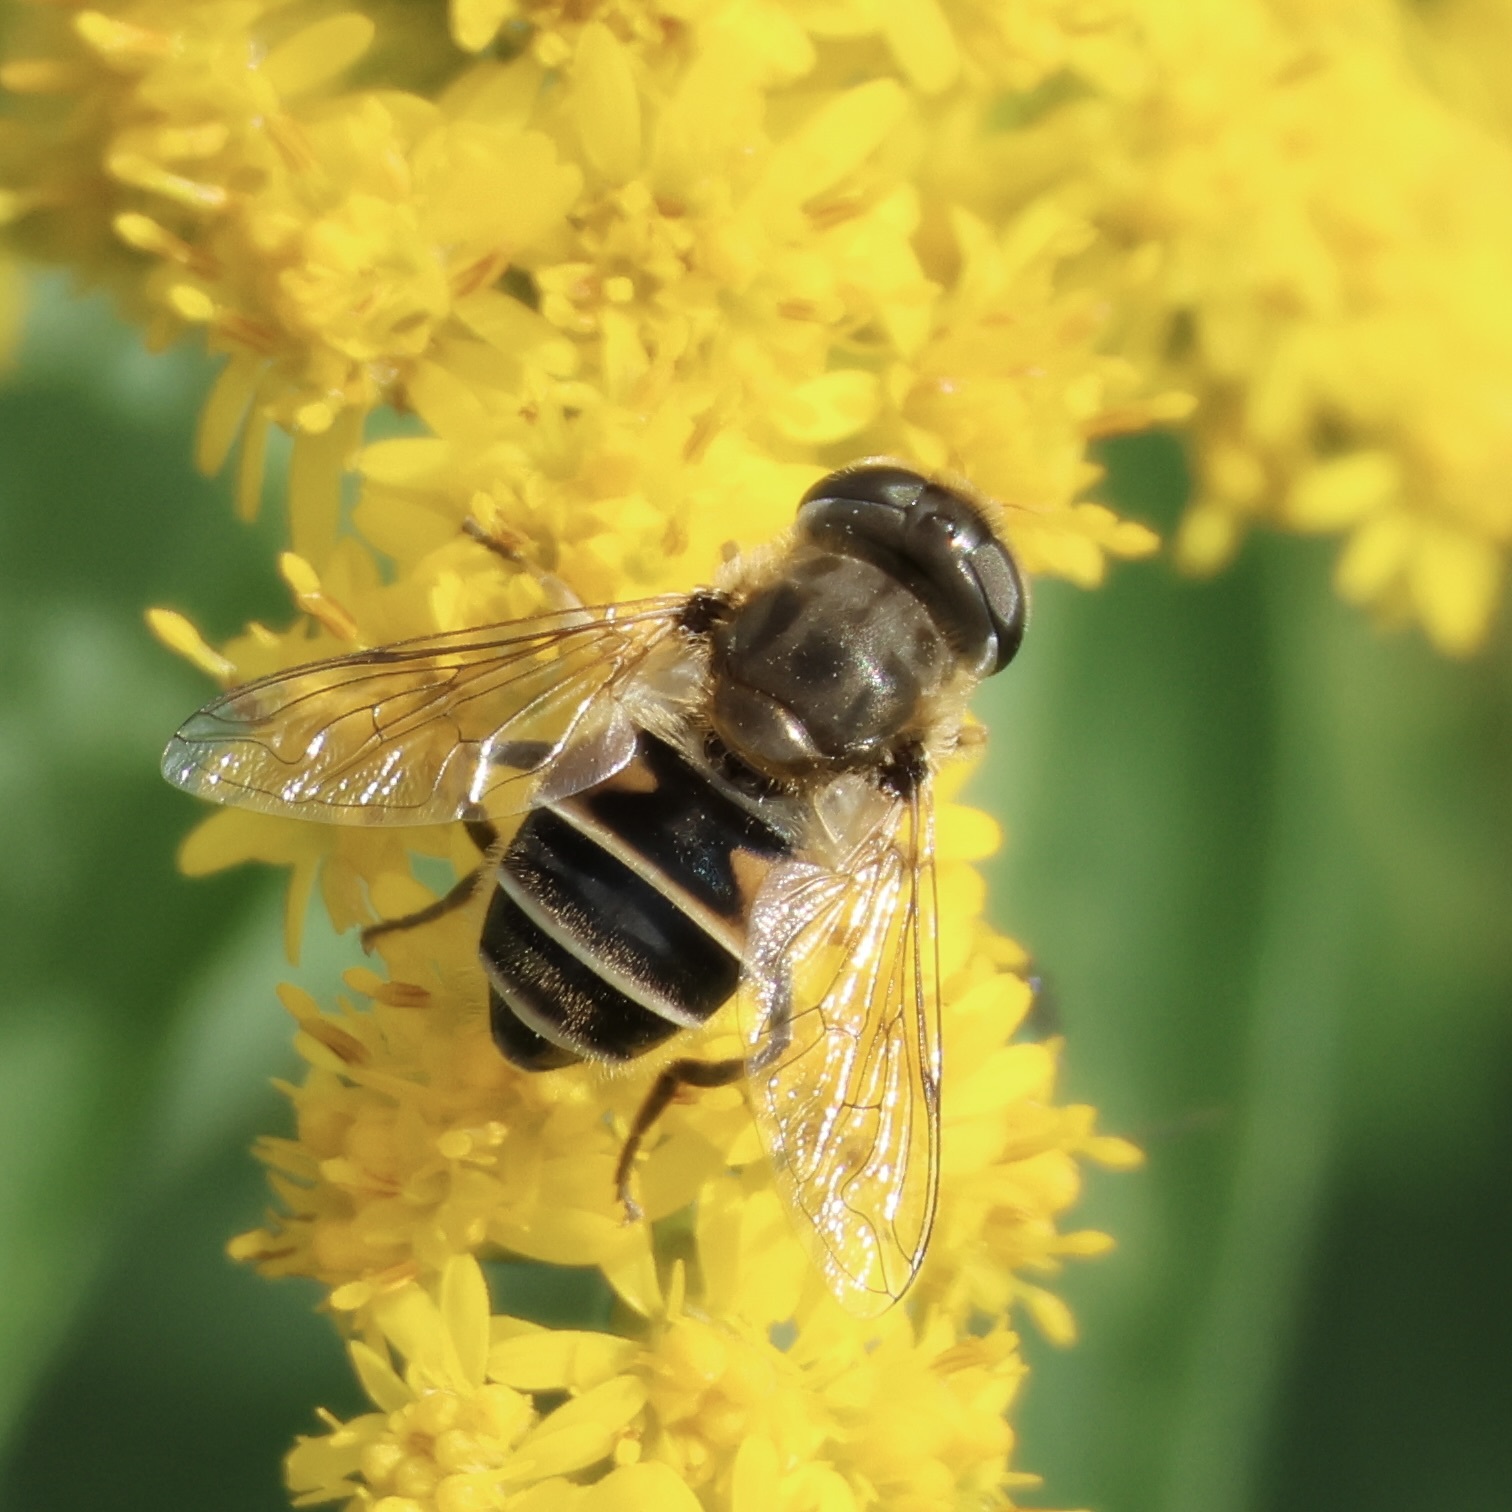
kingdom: Animalia
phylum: Arthropoda
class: Insecta
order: Diptera
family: Syrphidae
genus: Eristalis
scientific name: Eristalis arbustorum
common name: Hover fly
